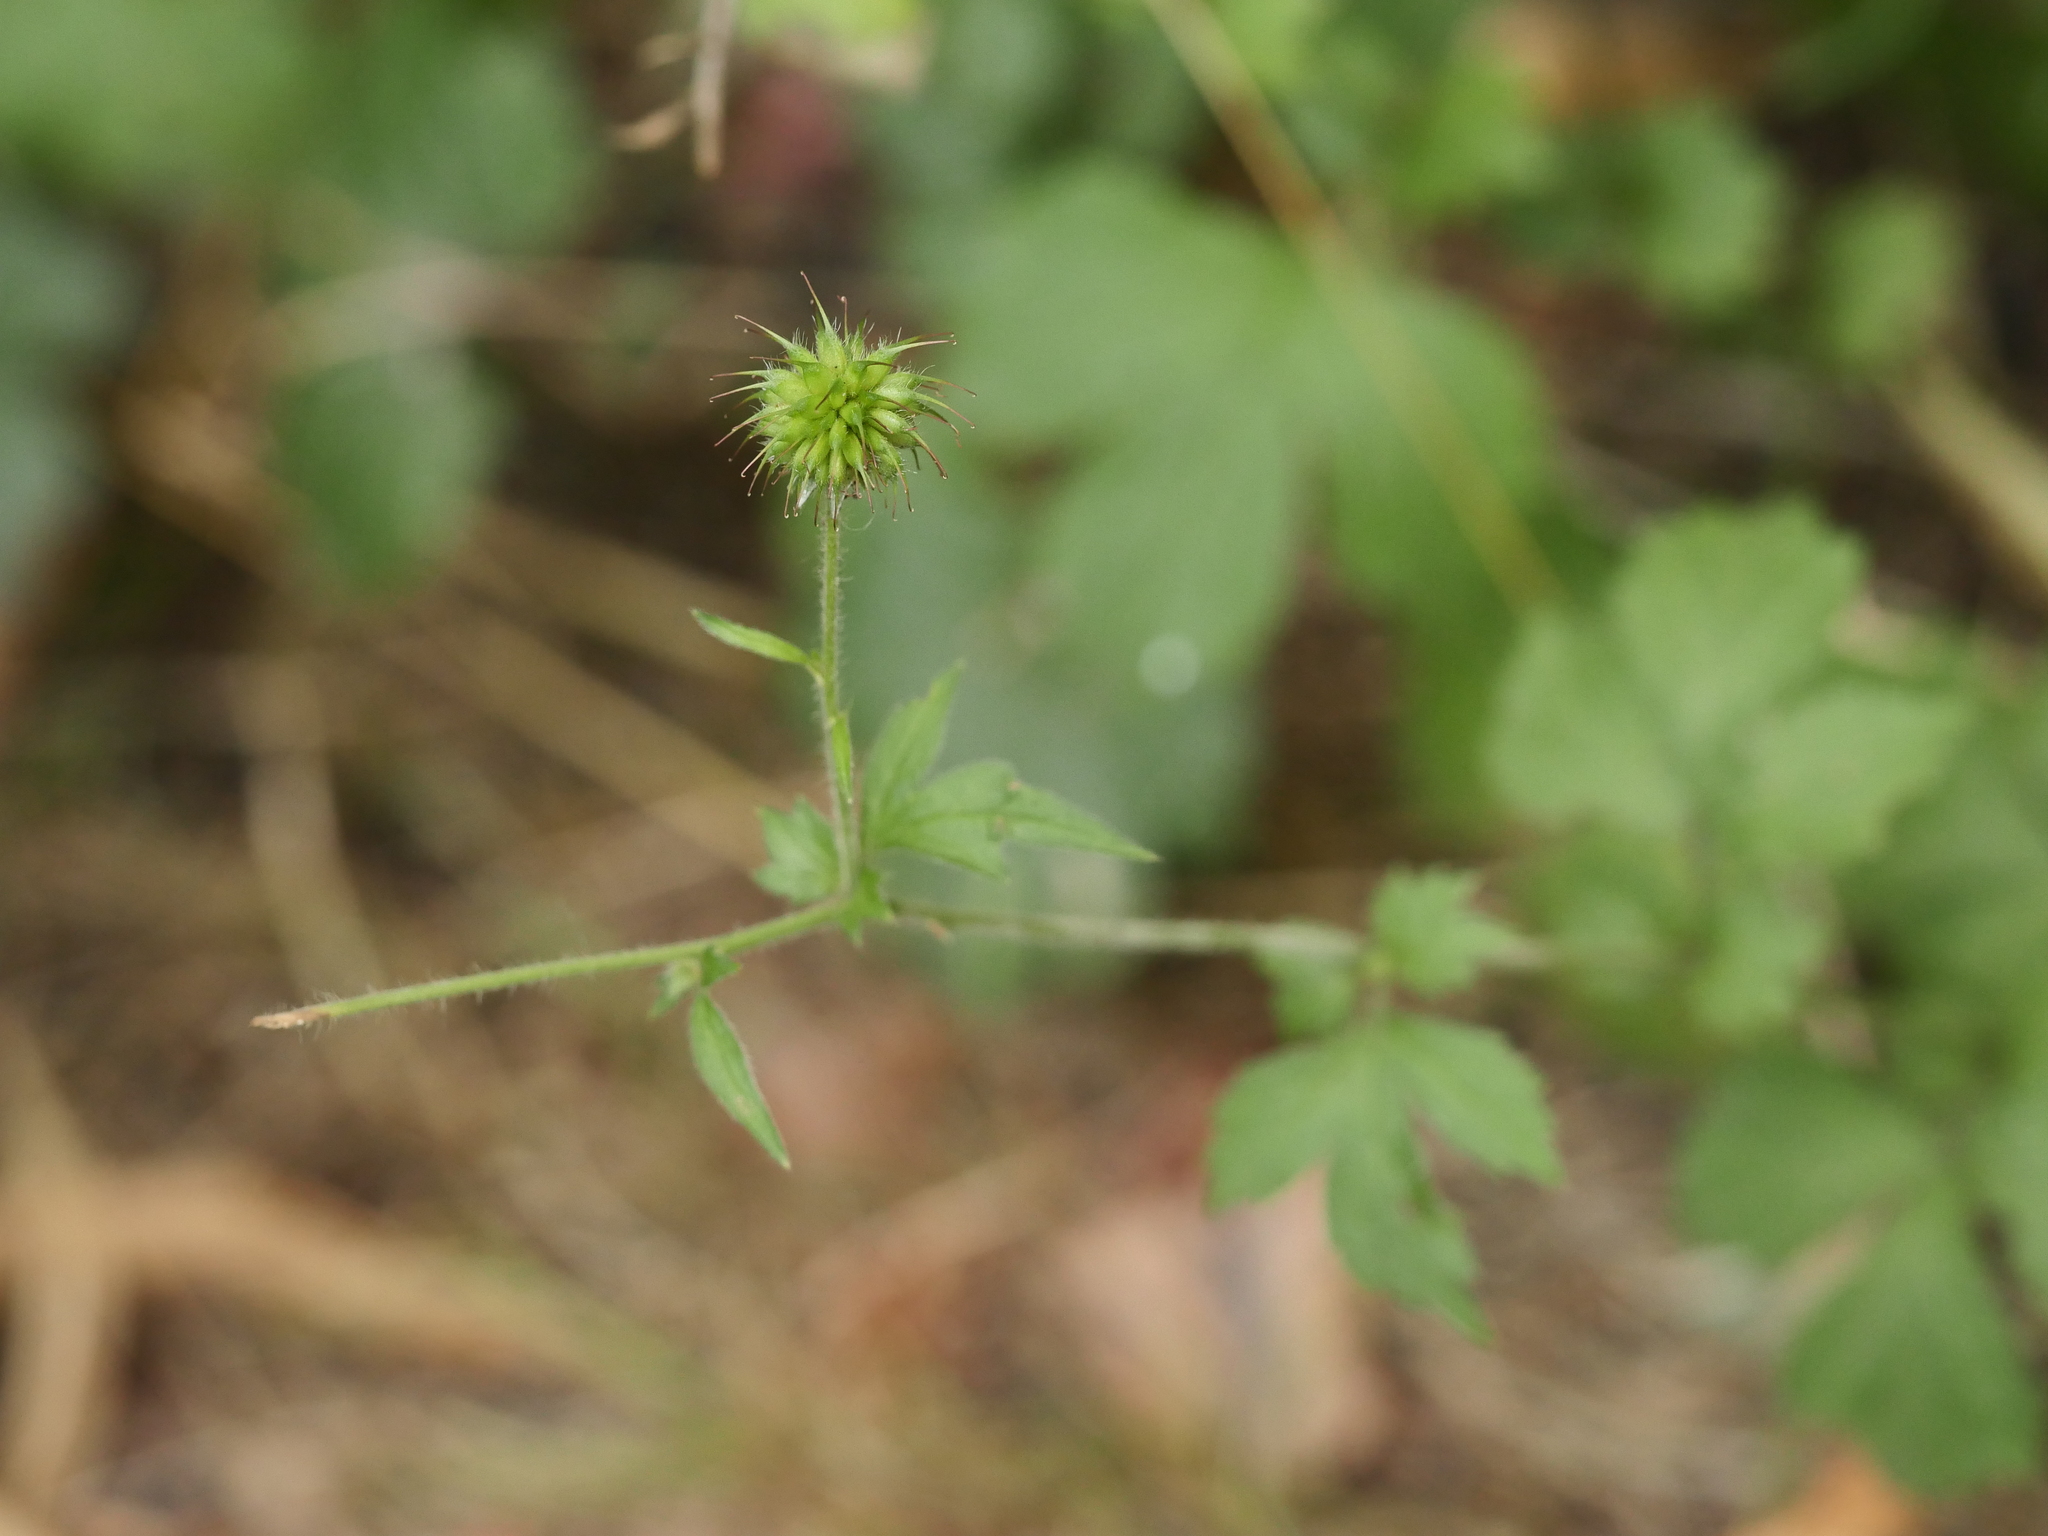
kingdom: Plantae
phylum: Tracheophyta
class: Magnoliopsida
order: Rosales
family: Rosaceae
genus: Geum
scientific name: Geum urbanum
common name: Wood avens
